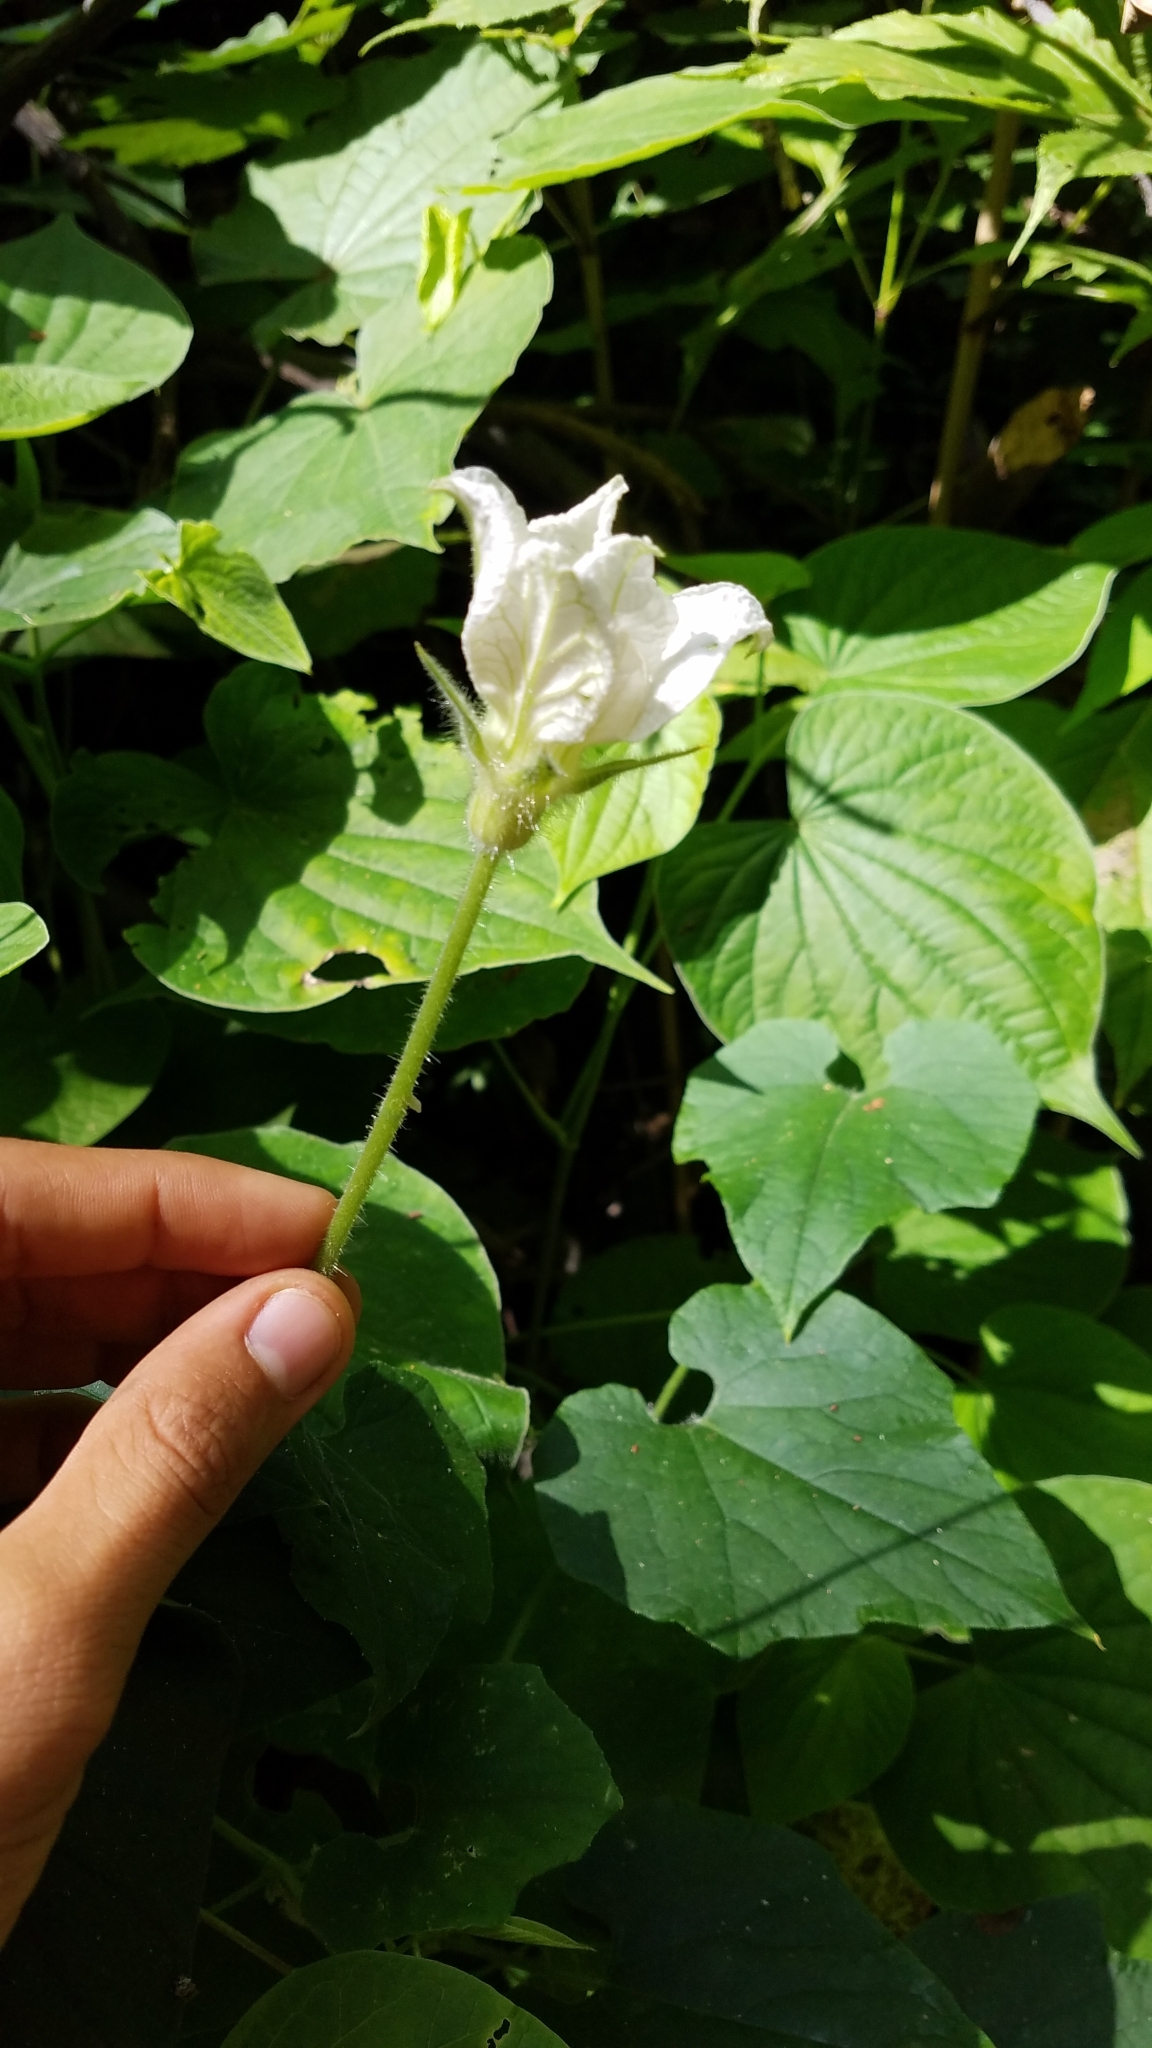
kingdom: Plantae
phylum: Tracheophyta
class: Magnoliopsida
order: Cucurbitales
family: Cucurbitaceae
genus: Polyclathra
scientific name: Polyclathra cucumerina
